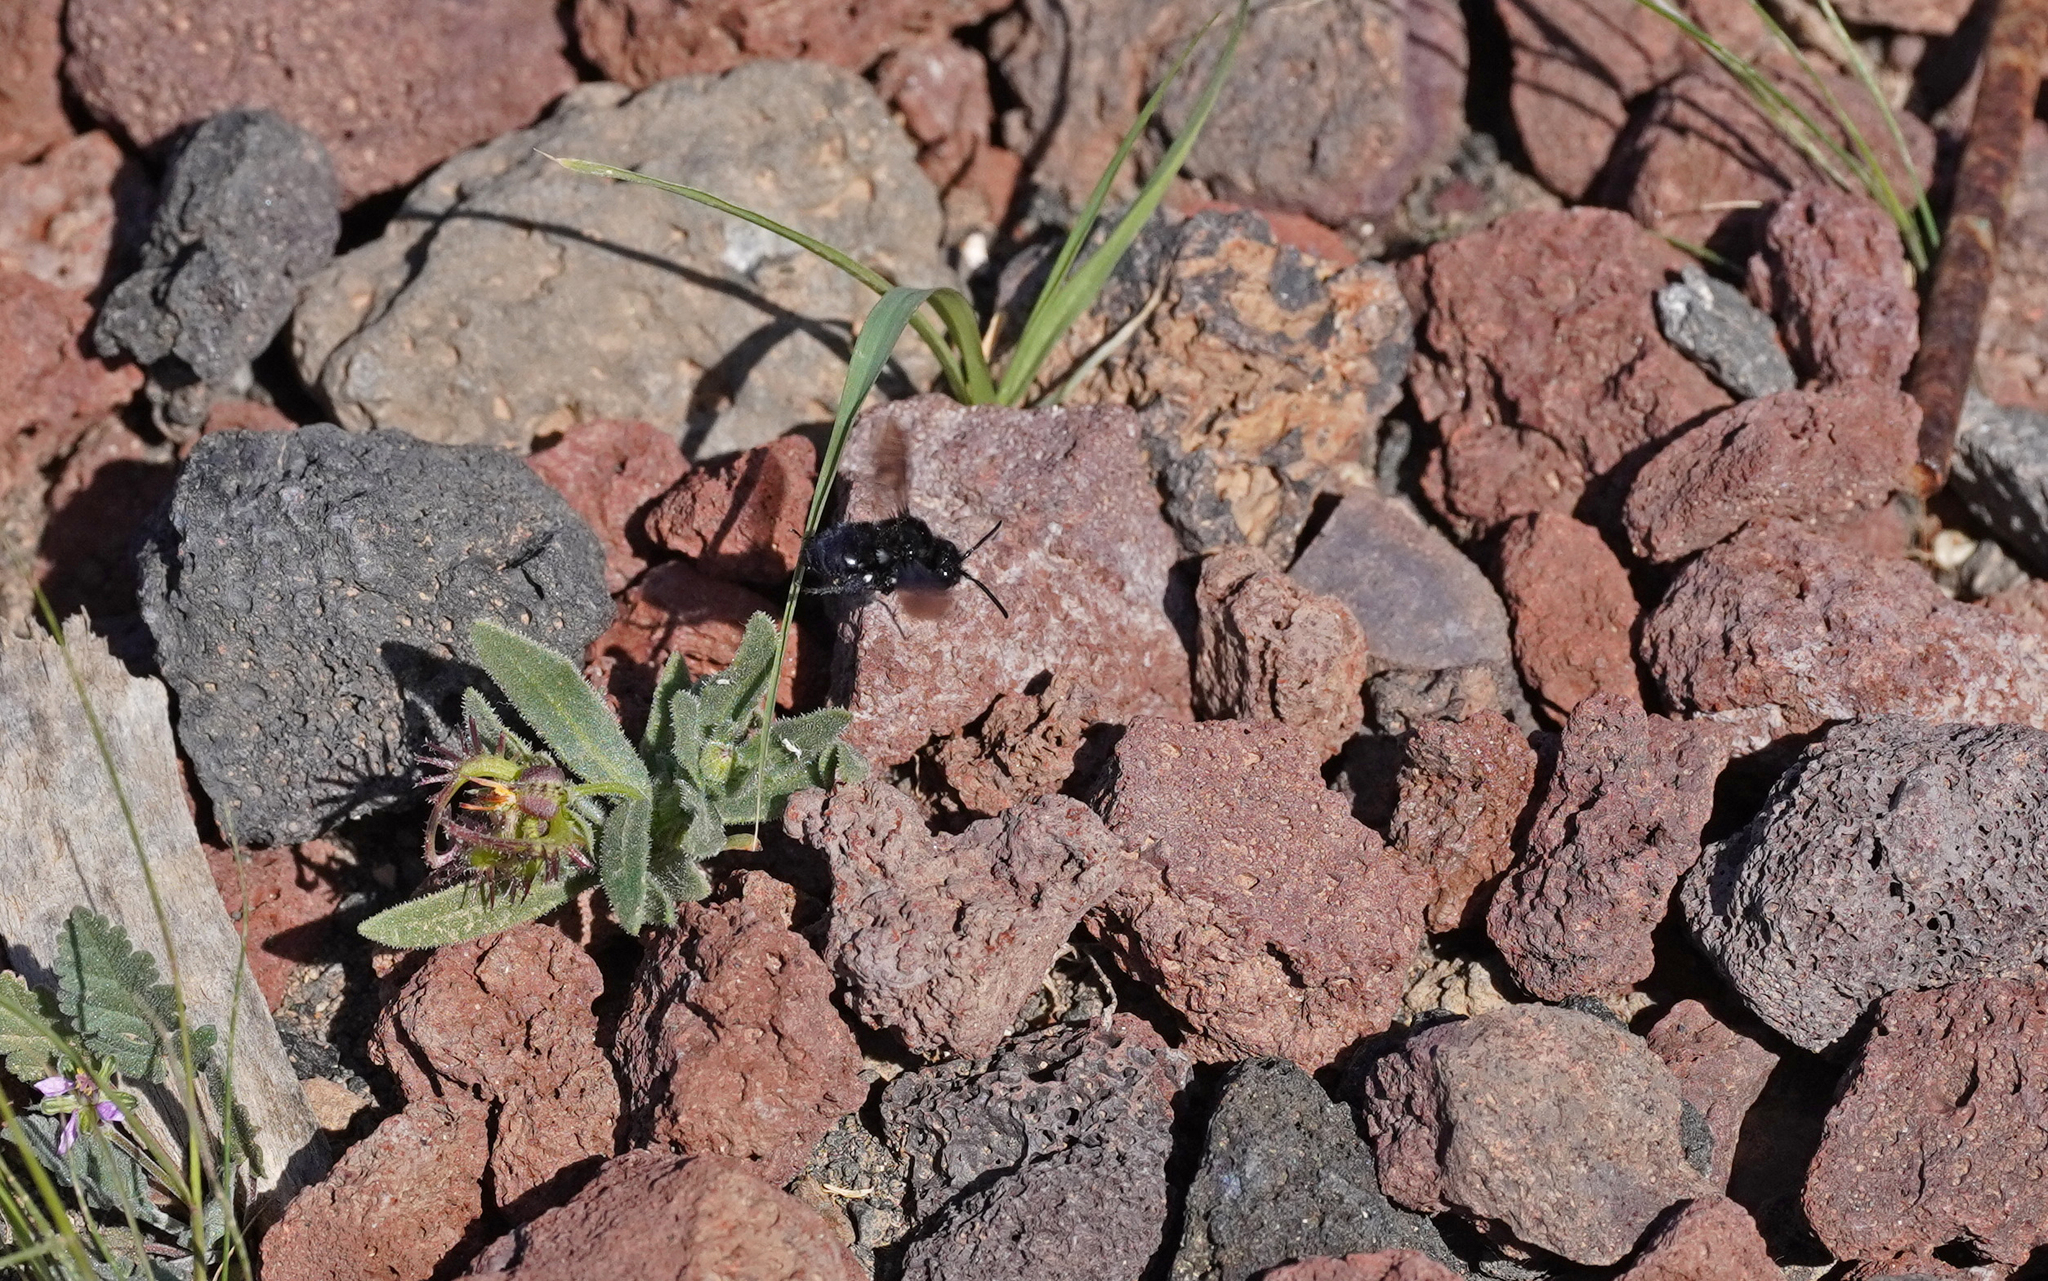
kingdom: Animalia
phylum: Arthropoda
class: Insecta
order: Hymenoptera
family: Apidae
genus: Melecta
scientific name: Melecta caroli
